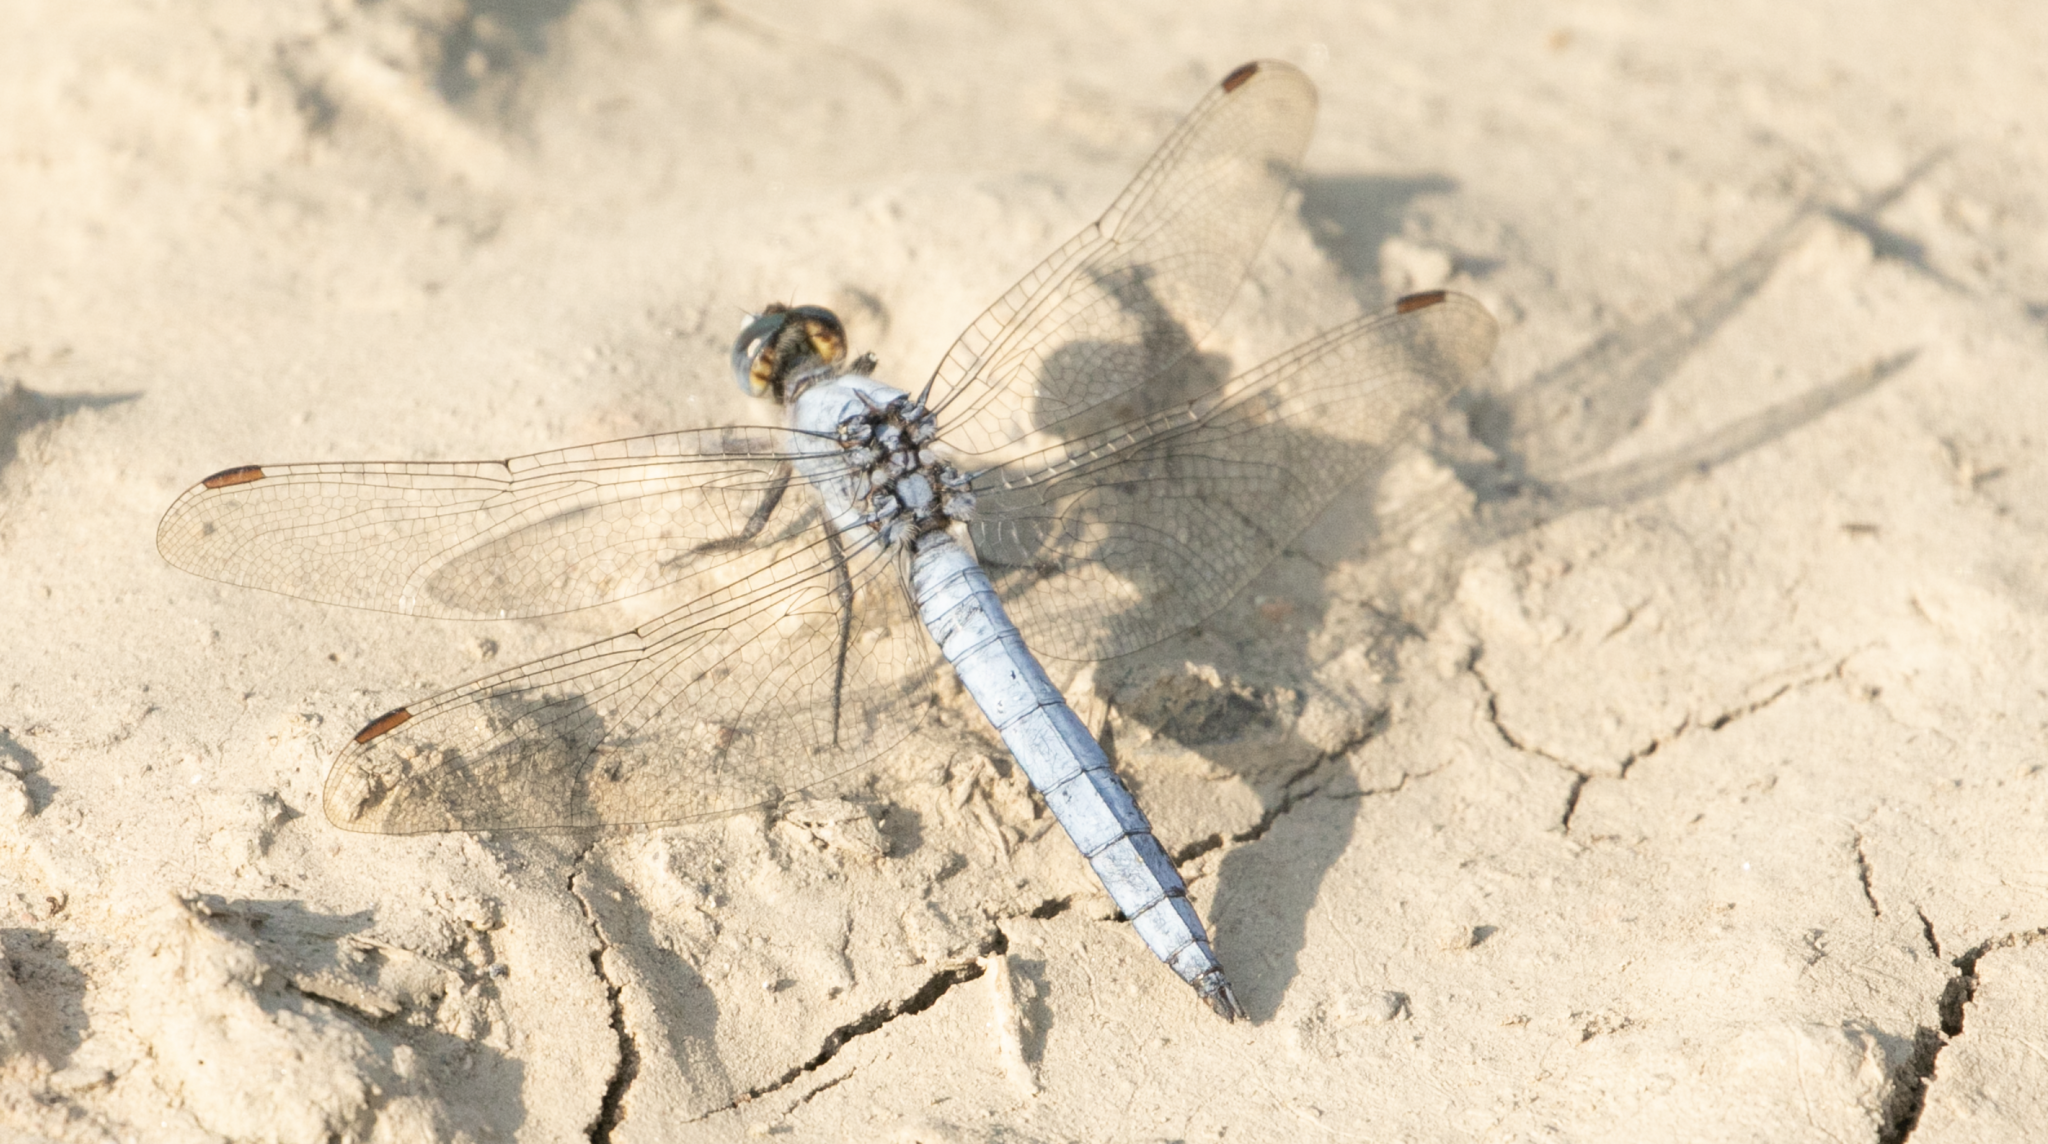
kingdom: Animalia
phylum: Arthropoda
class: Insecta
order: Odonata
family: Libellulidae
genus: Orthetrum
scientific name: Orthetrum brunneum
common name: Southern skimmer
